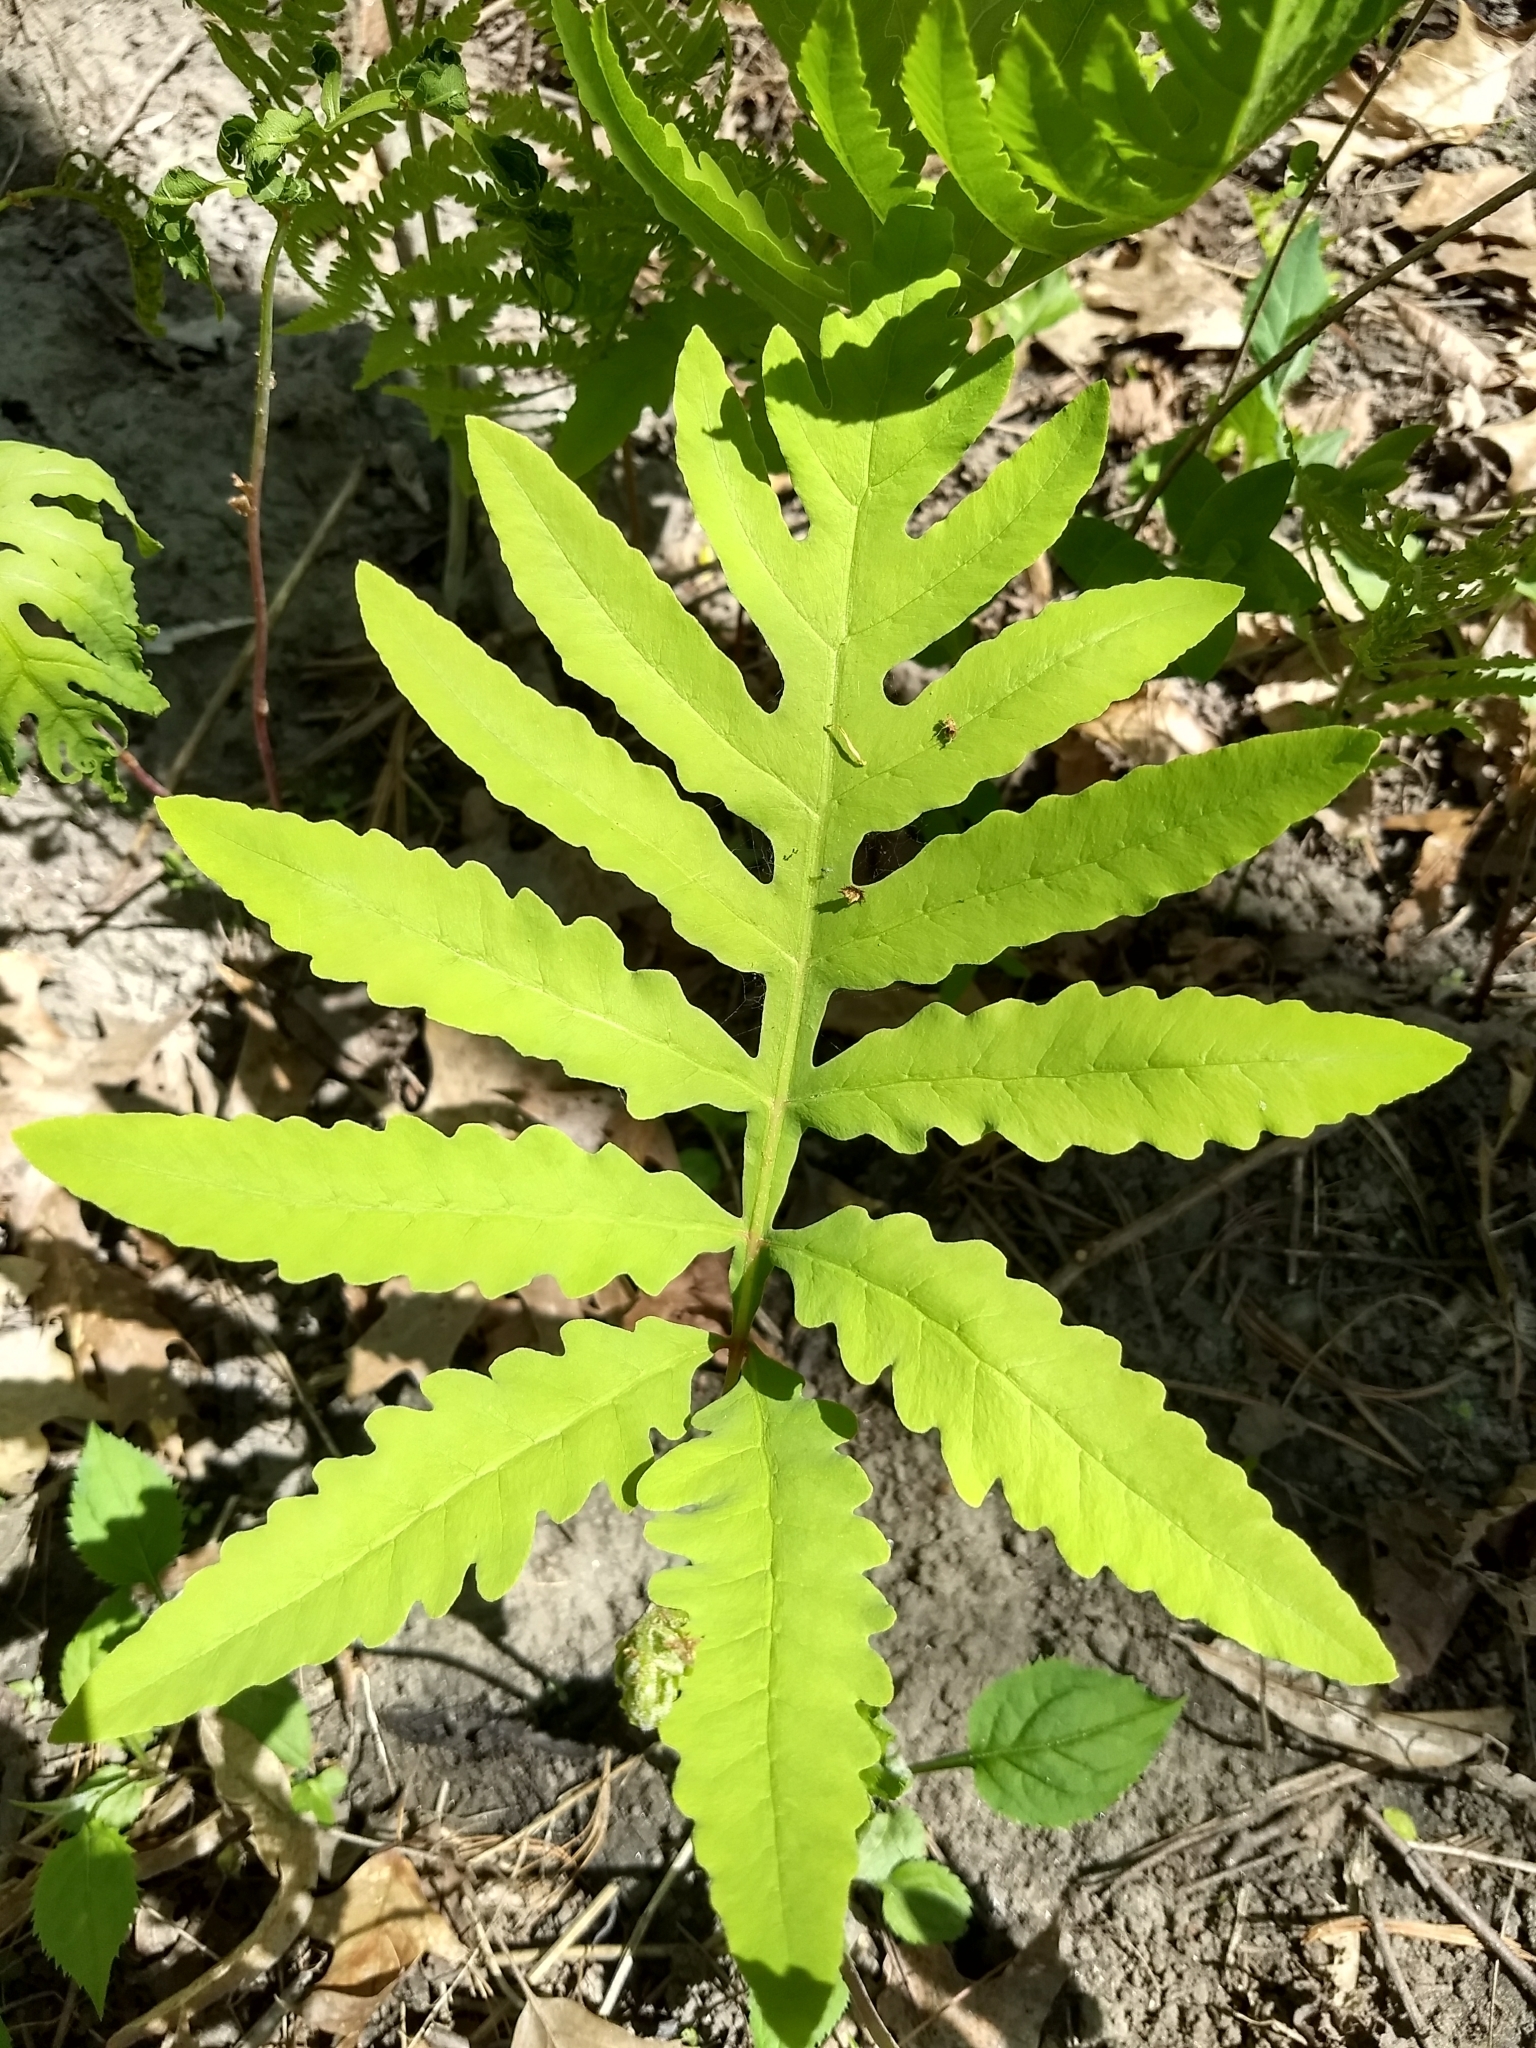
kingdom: Plantae
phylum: Tracheophyta
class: Polypodiopsida
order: Polypodiales
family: Onocleaceae
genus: Onoclea
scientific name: Onoclea sensibilis
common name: Sensitive fern
